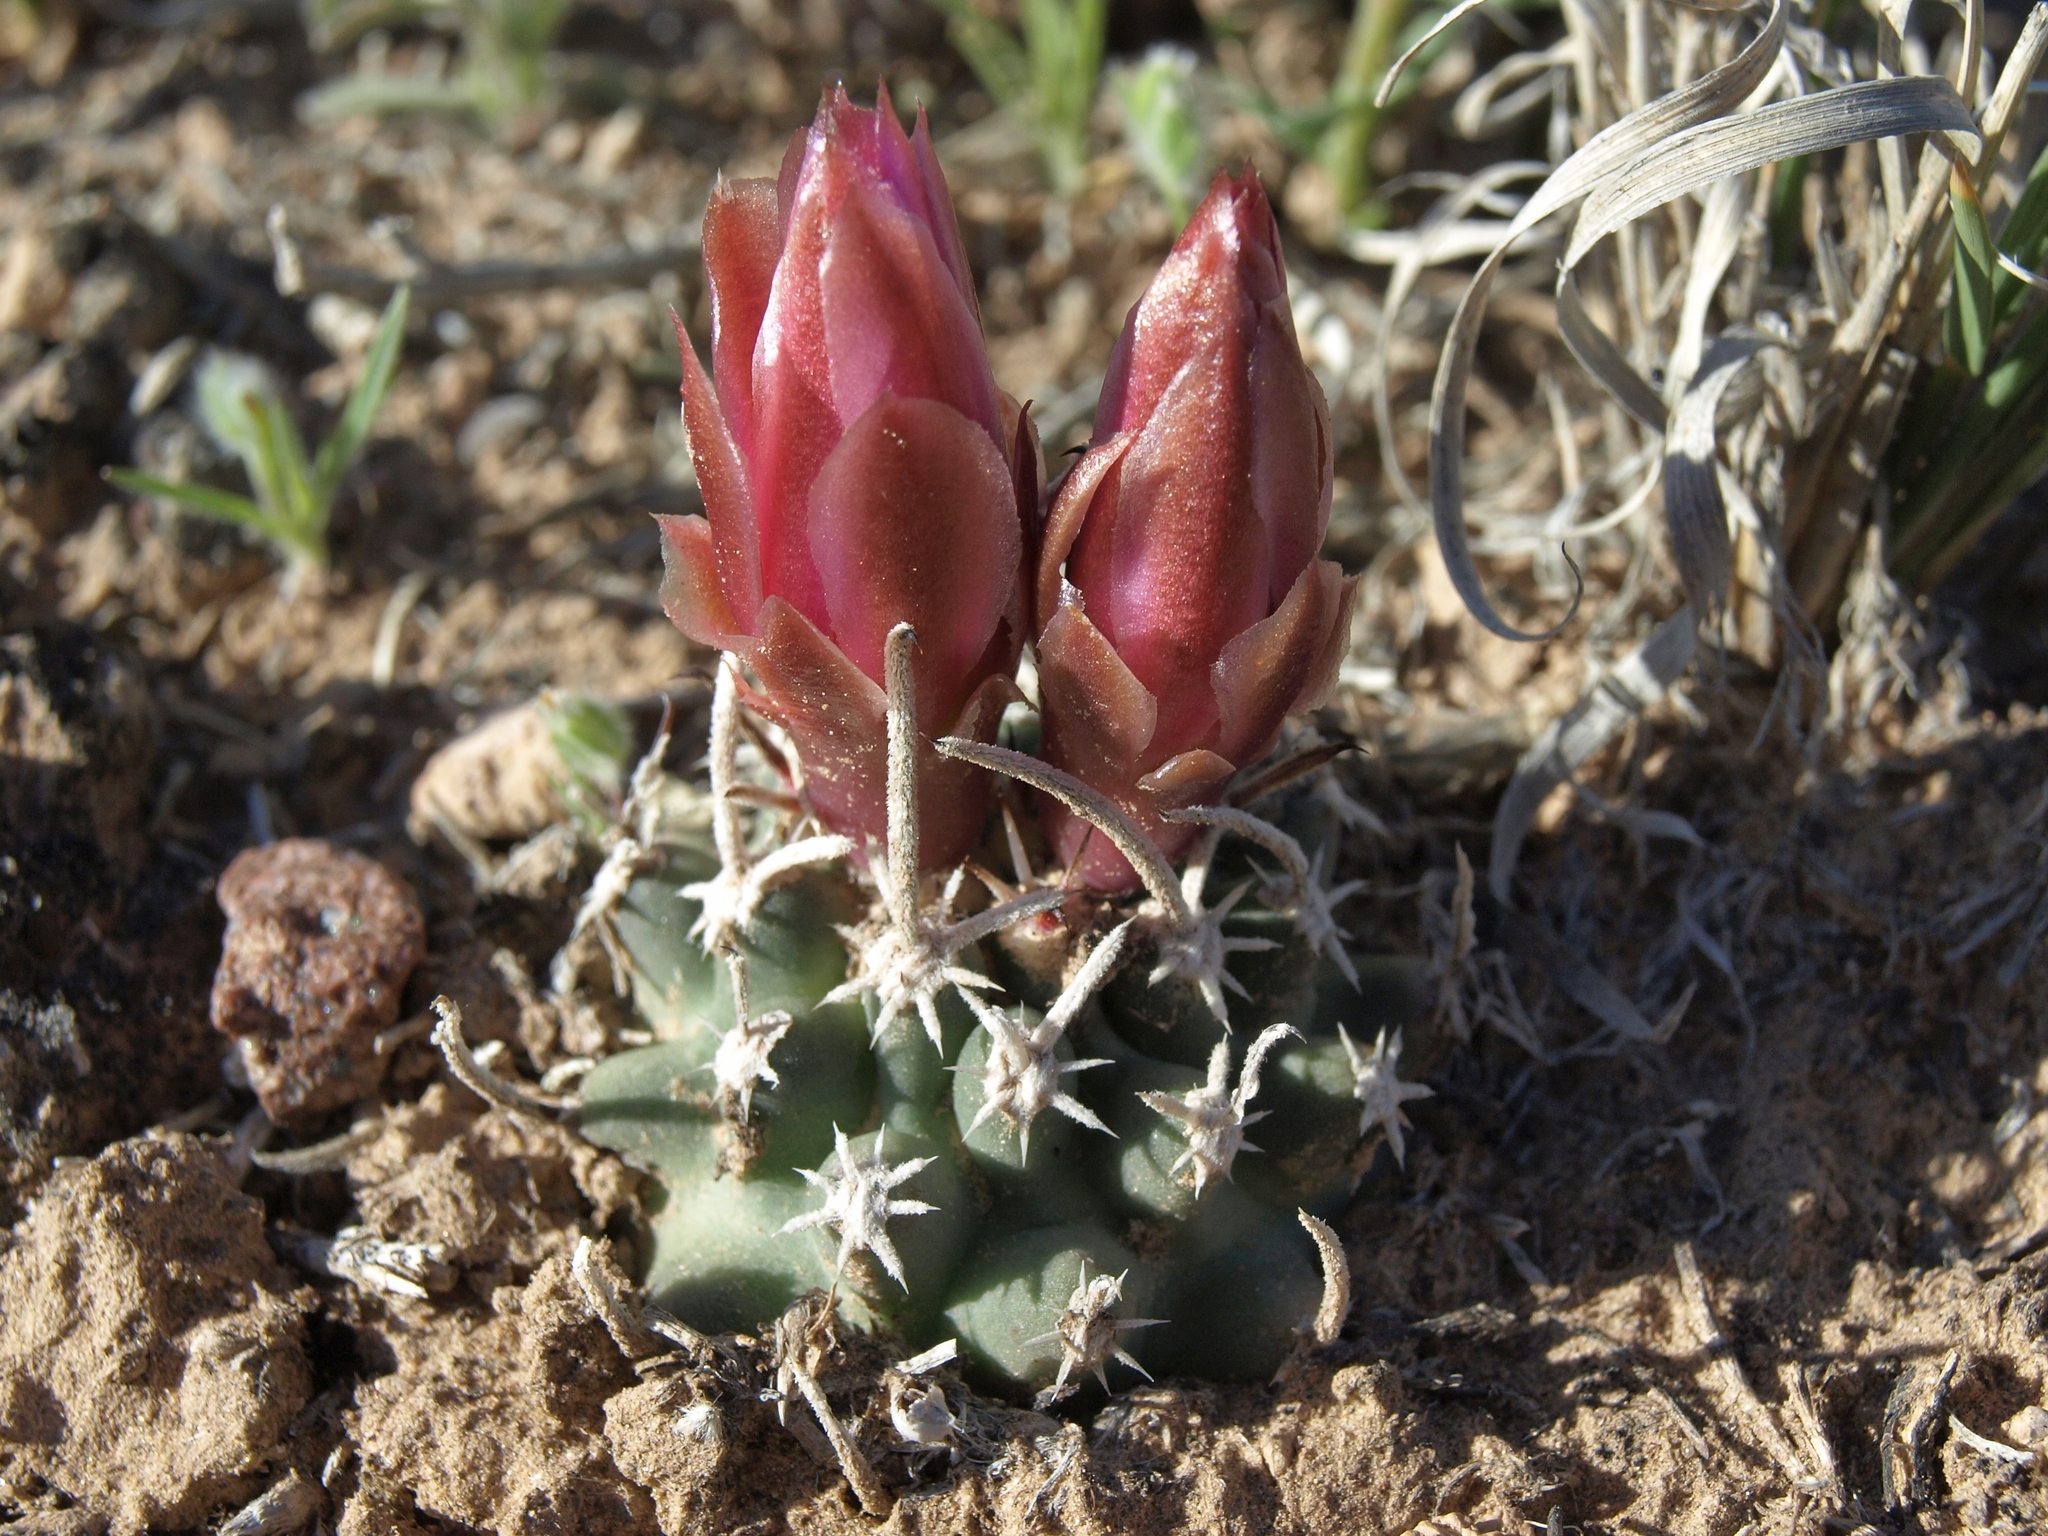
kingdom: Plantae
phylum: Tracheophyta
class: Magnoliopsida
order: Caryophyllales
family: Cactaceae
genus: Sclerocactus
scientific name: Sclerocactus blainei
